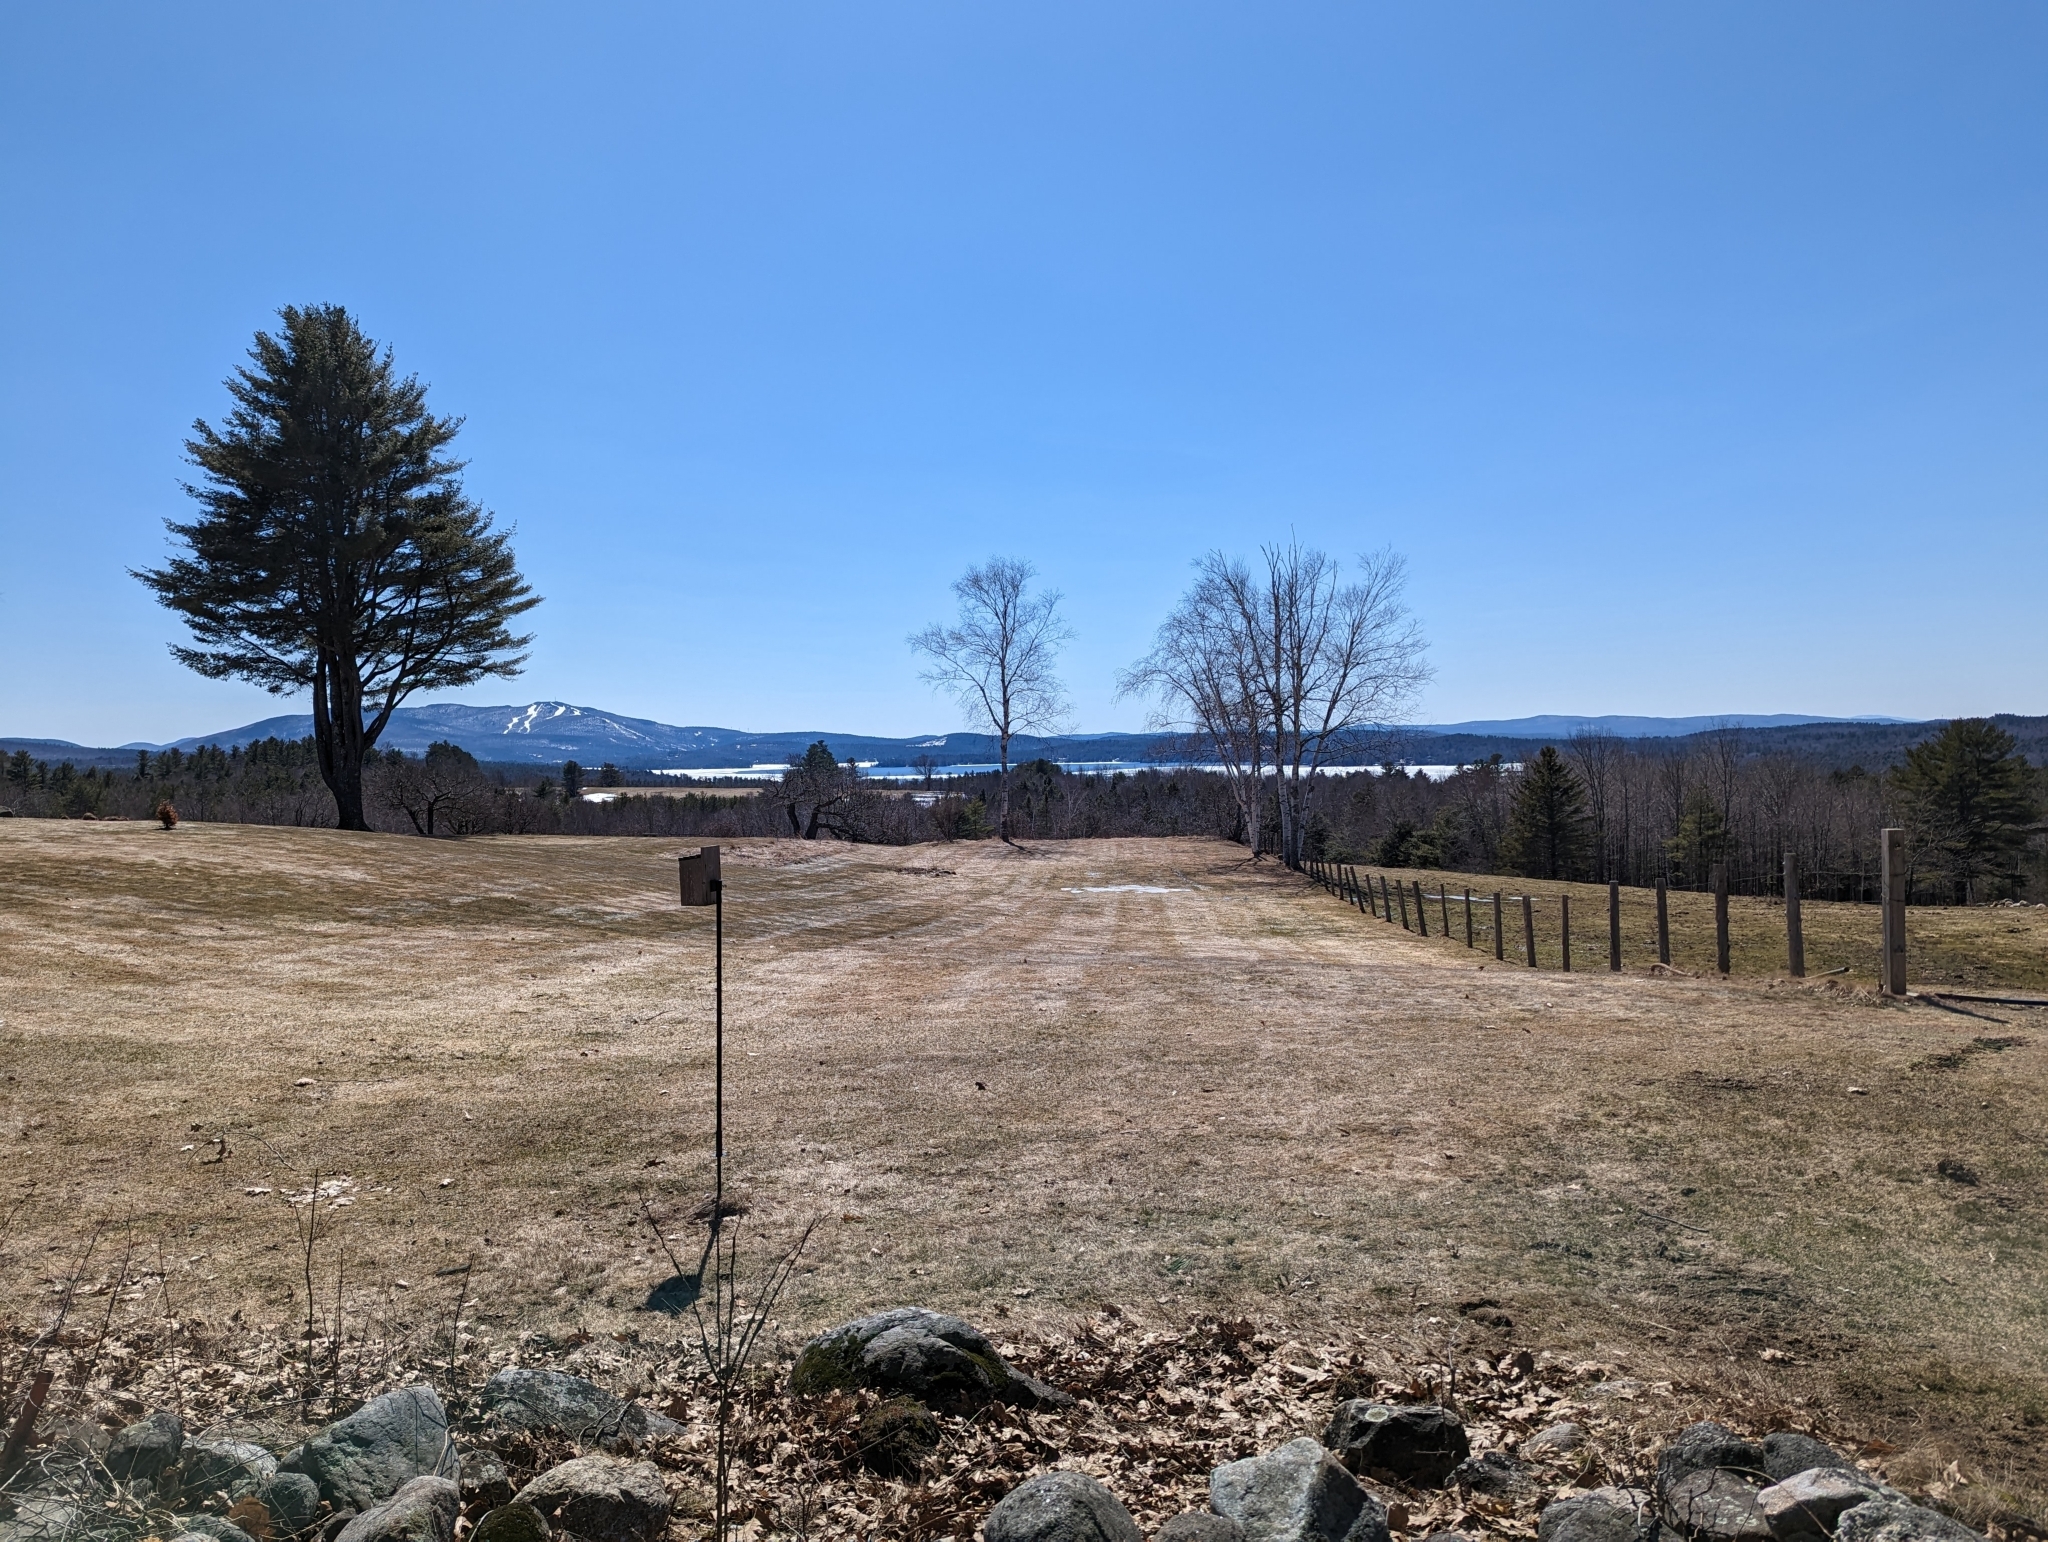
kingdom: Plantae
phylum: Tracheophyta
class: Pinopsida
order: Pinales
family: Pinaceae
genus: Pinus
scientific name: Pinus strobus
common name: Weymouth pine
